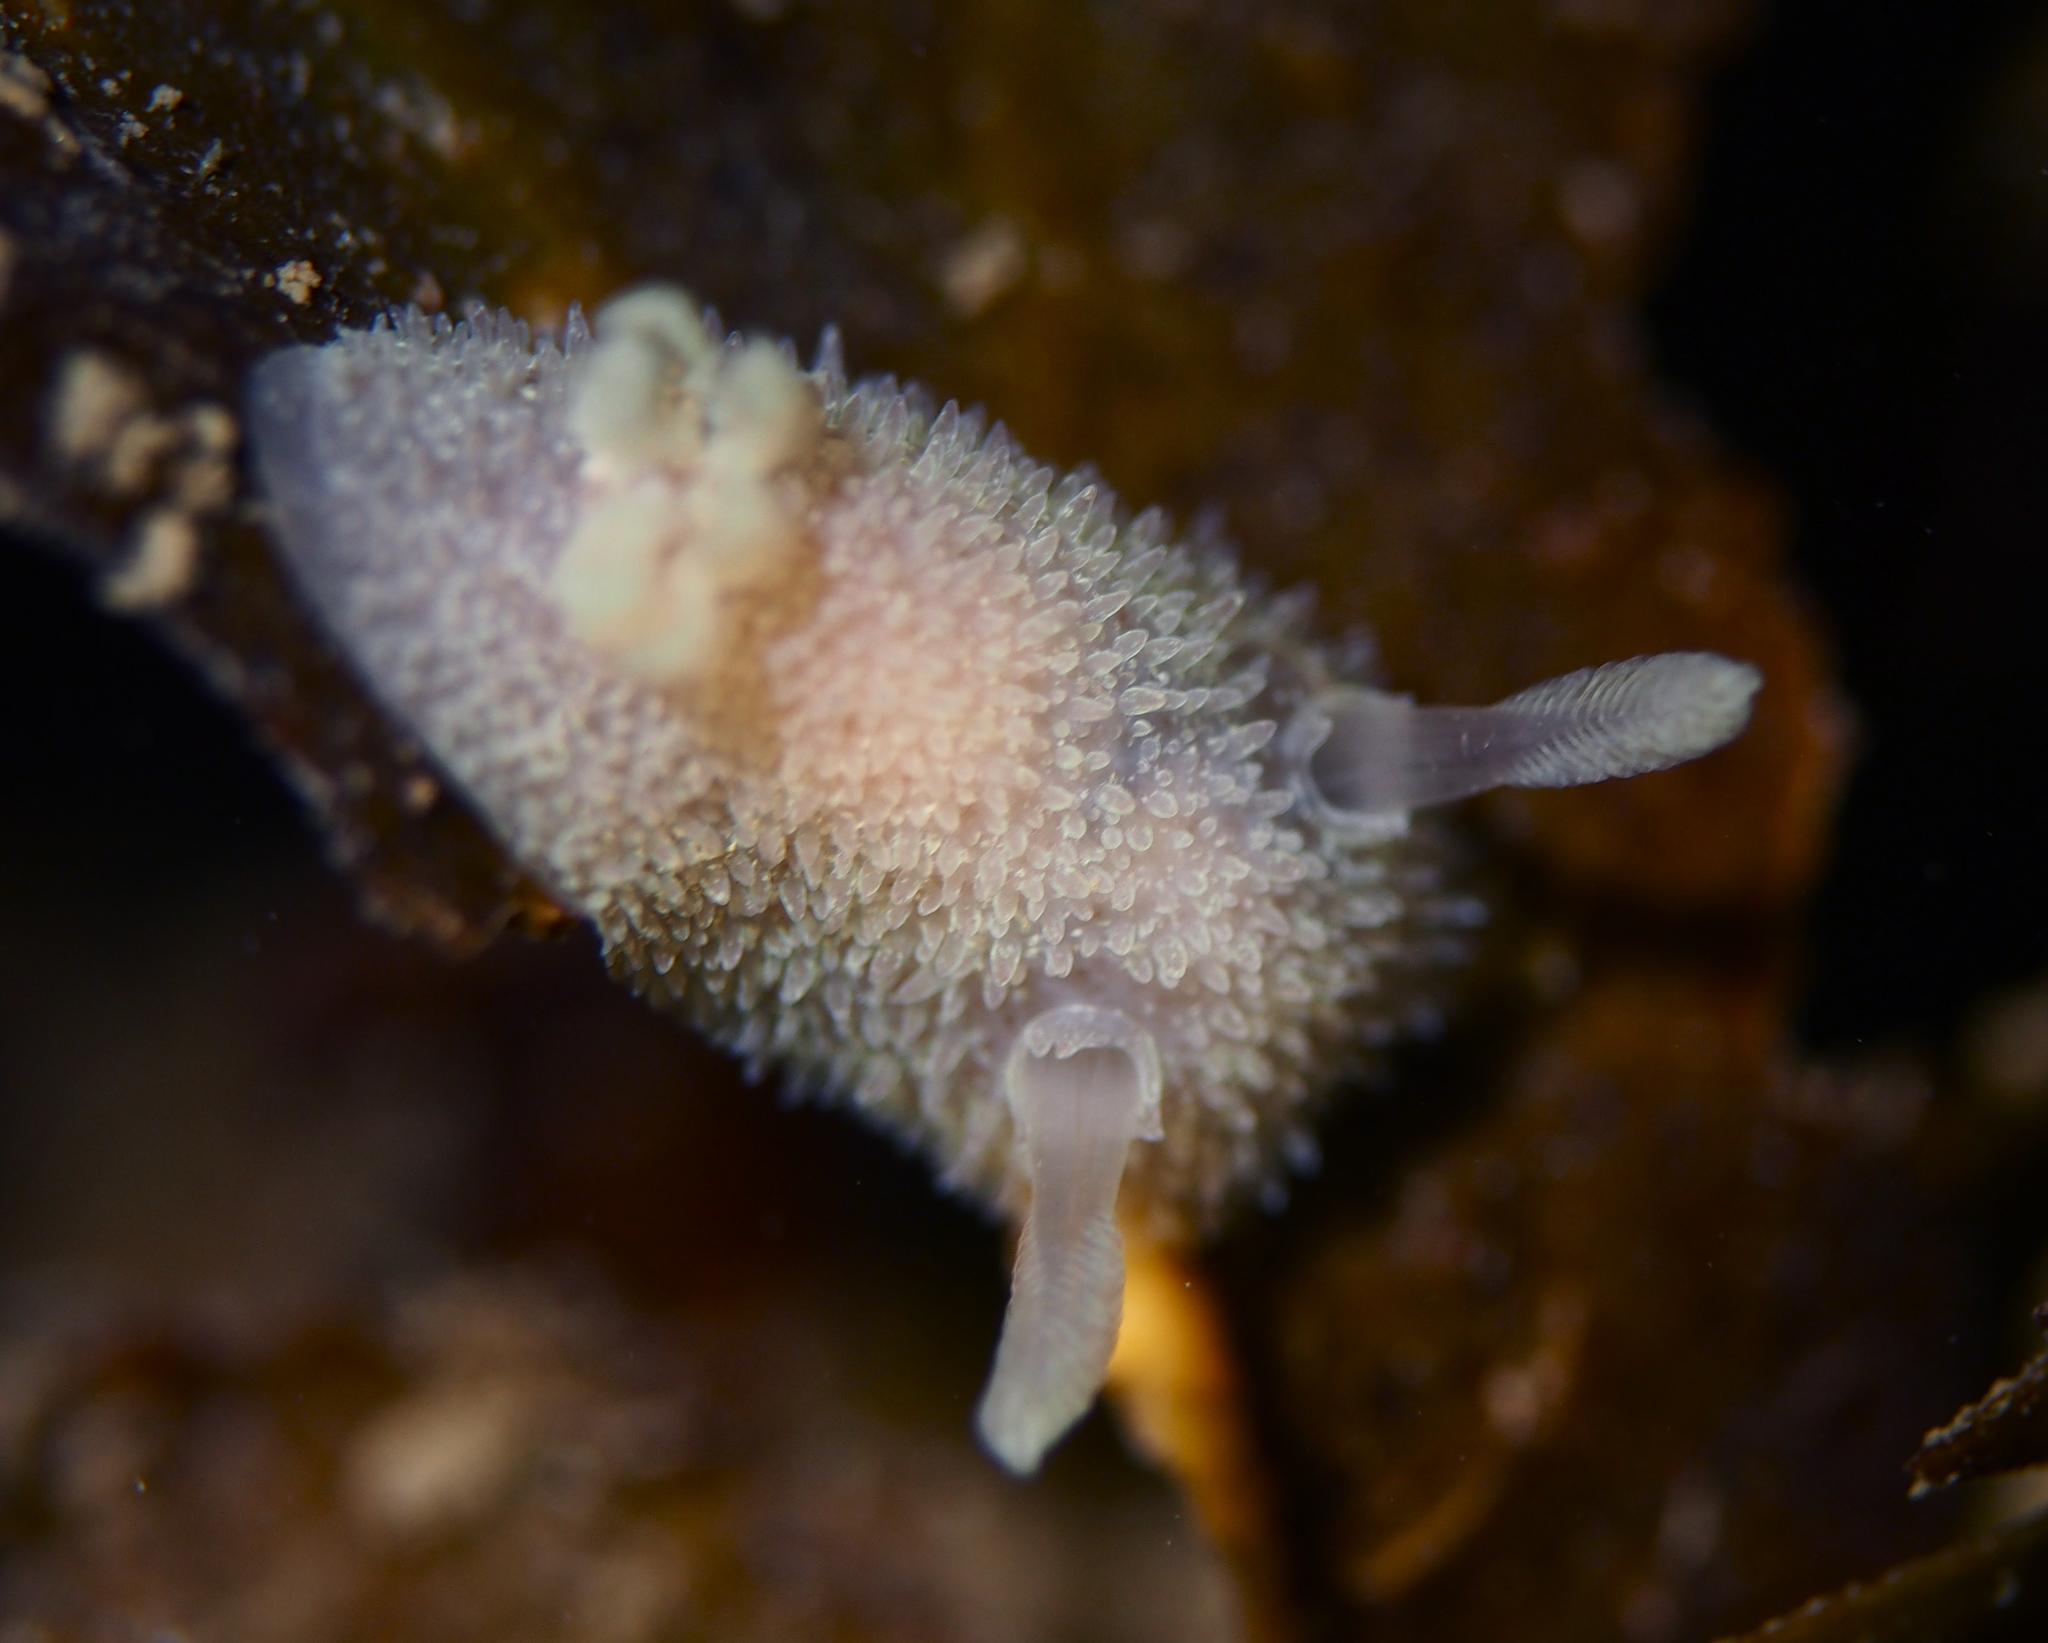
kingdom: Animalia
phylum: Mollusca
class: Gastropoda
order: Nudibranchia
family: Onchidorididae
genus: Acanthodoris
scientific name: Acanthodoris pilosa
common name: Hairy spiny doris
